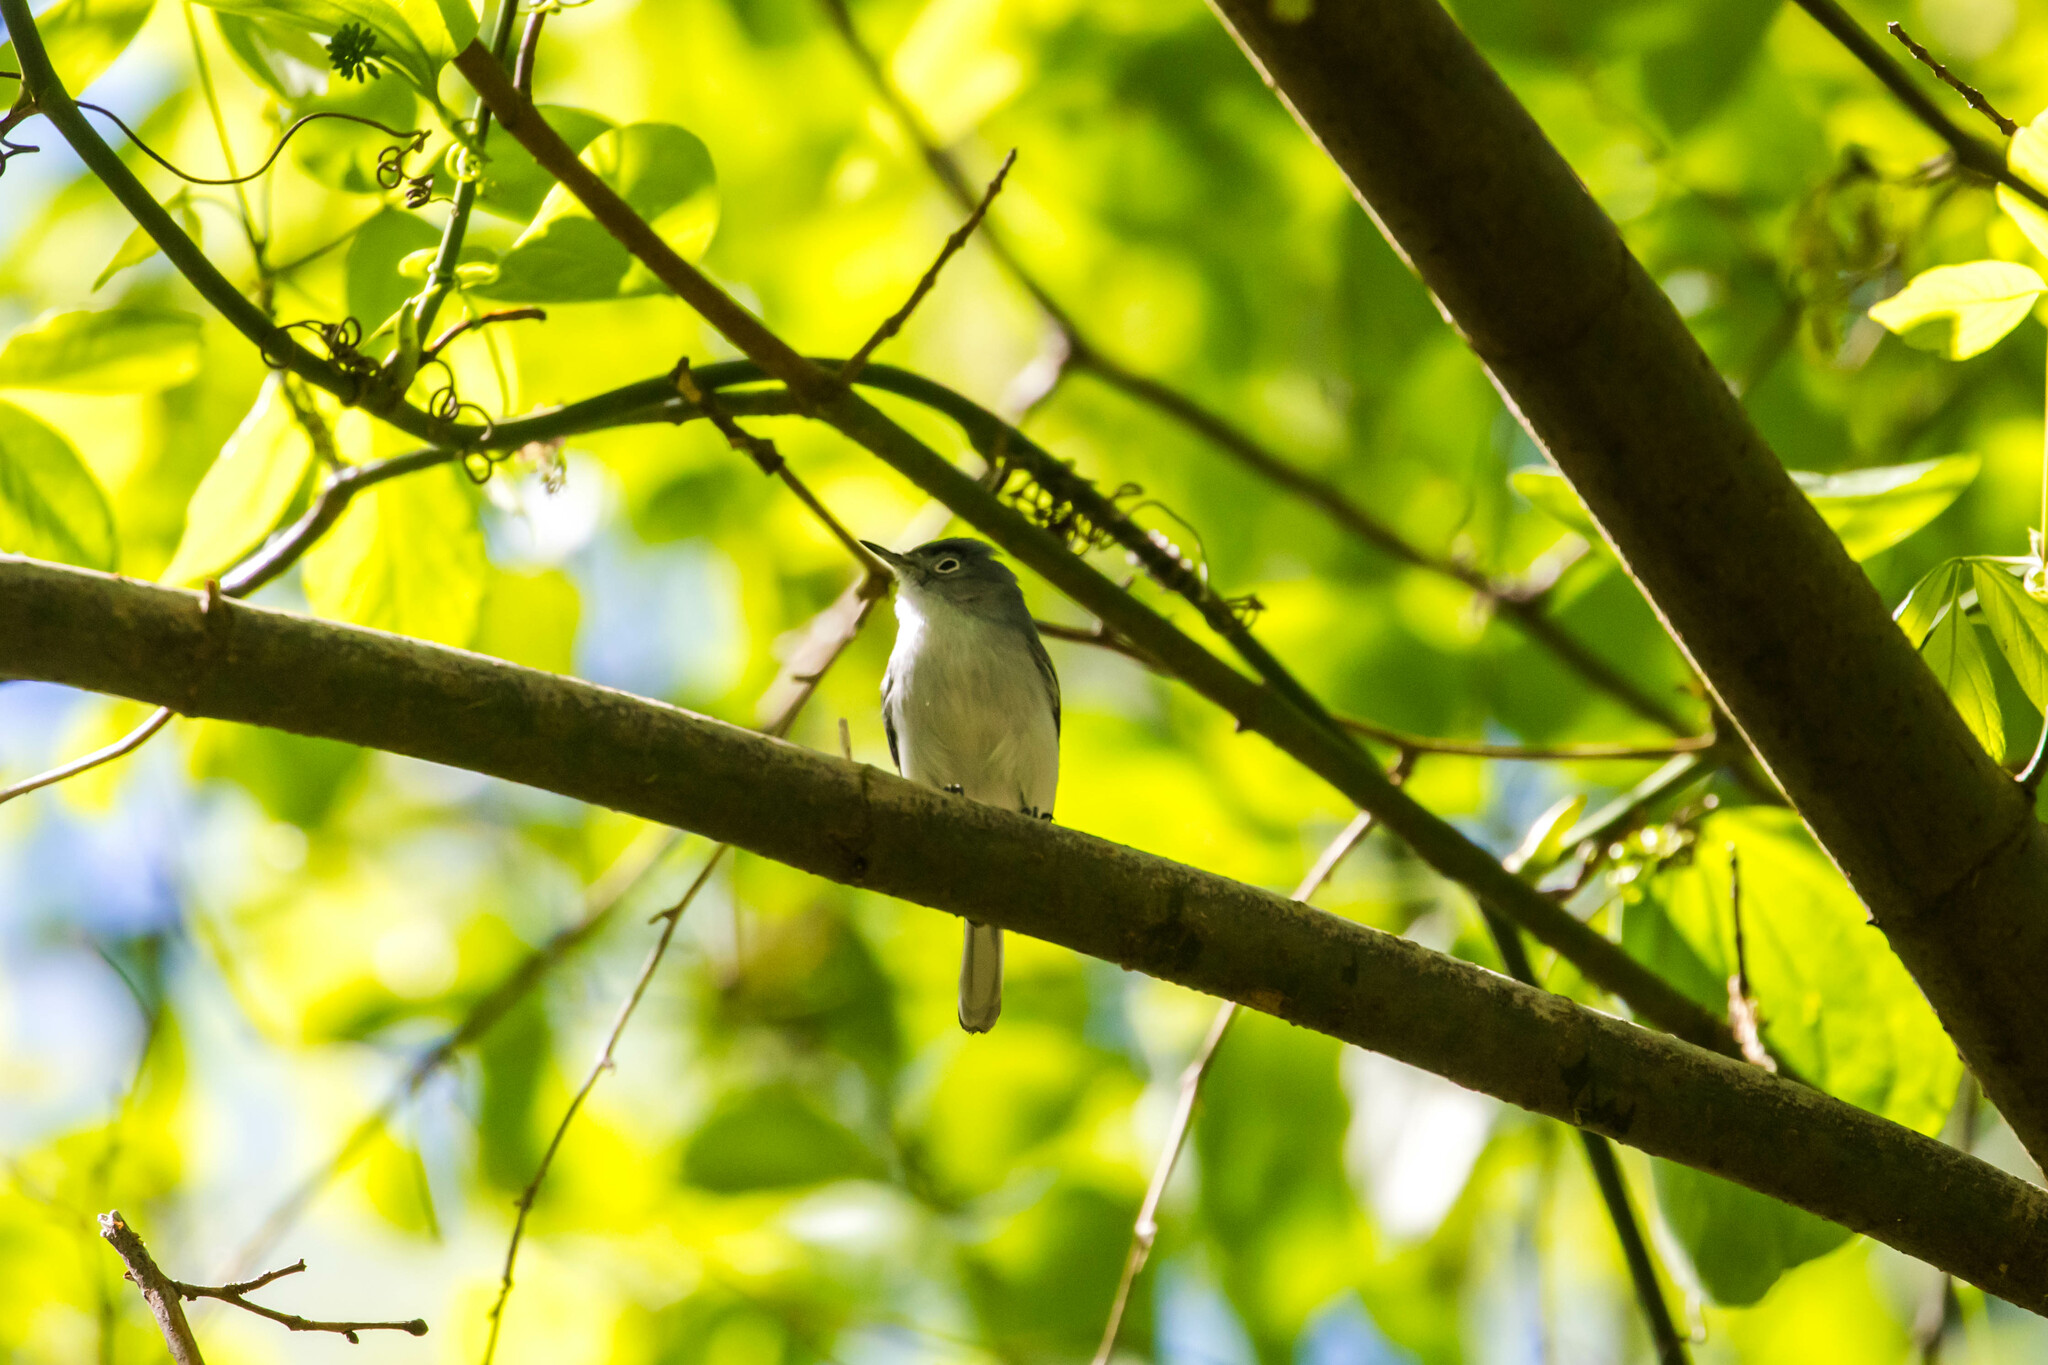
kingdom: Animalia
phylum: Chordata
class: Aves
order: Passeriformes
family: Polioptilidae
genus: Polioptila
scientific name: Polioptila caerulea
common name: Blue-gray gnatcatcher
